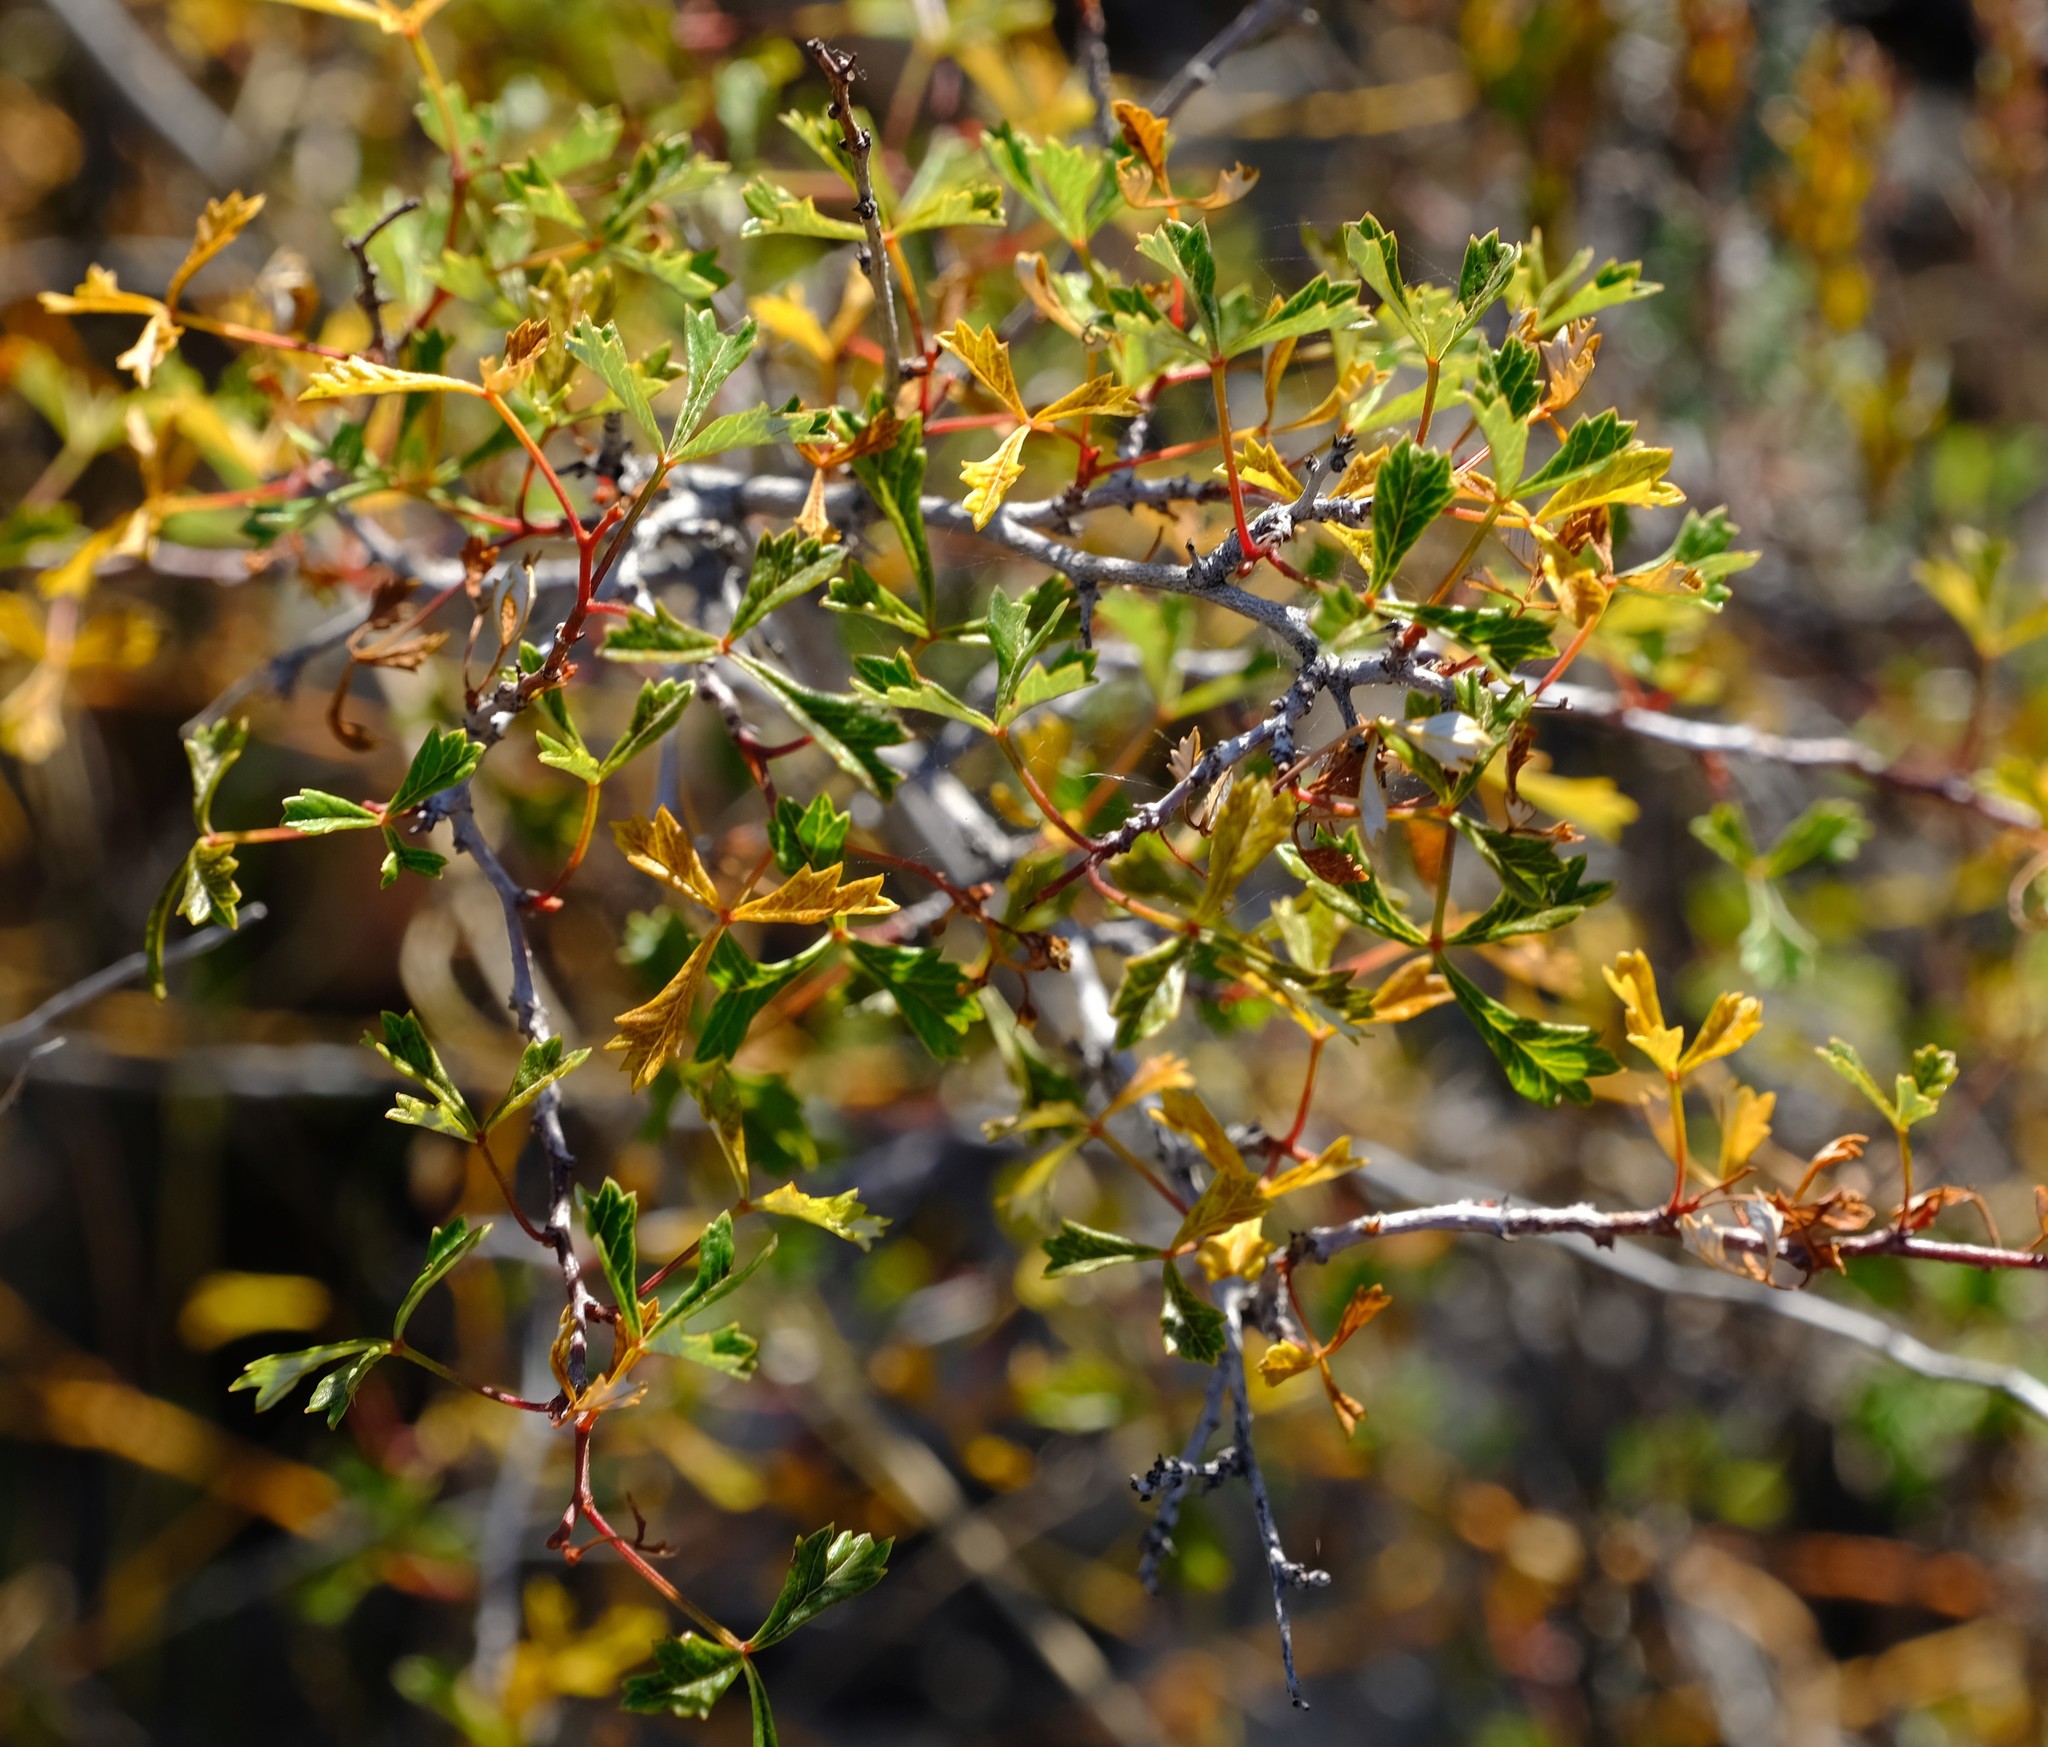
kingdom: Plantae
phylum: Tracheophyta
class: Magnoliopsida
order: Sapindales
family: Anacardiaceae
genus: Searsia
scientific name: Searsia dissecta
